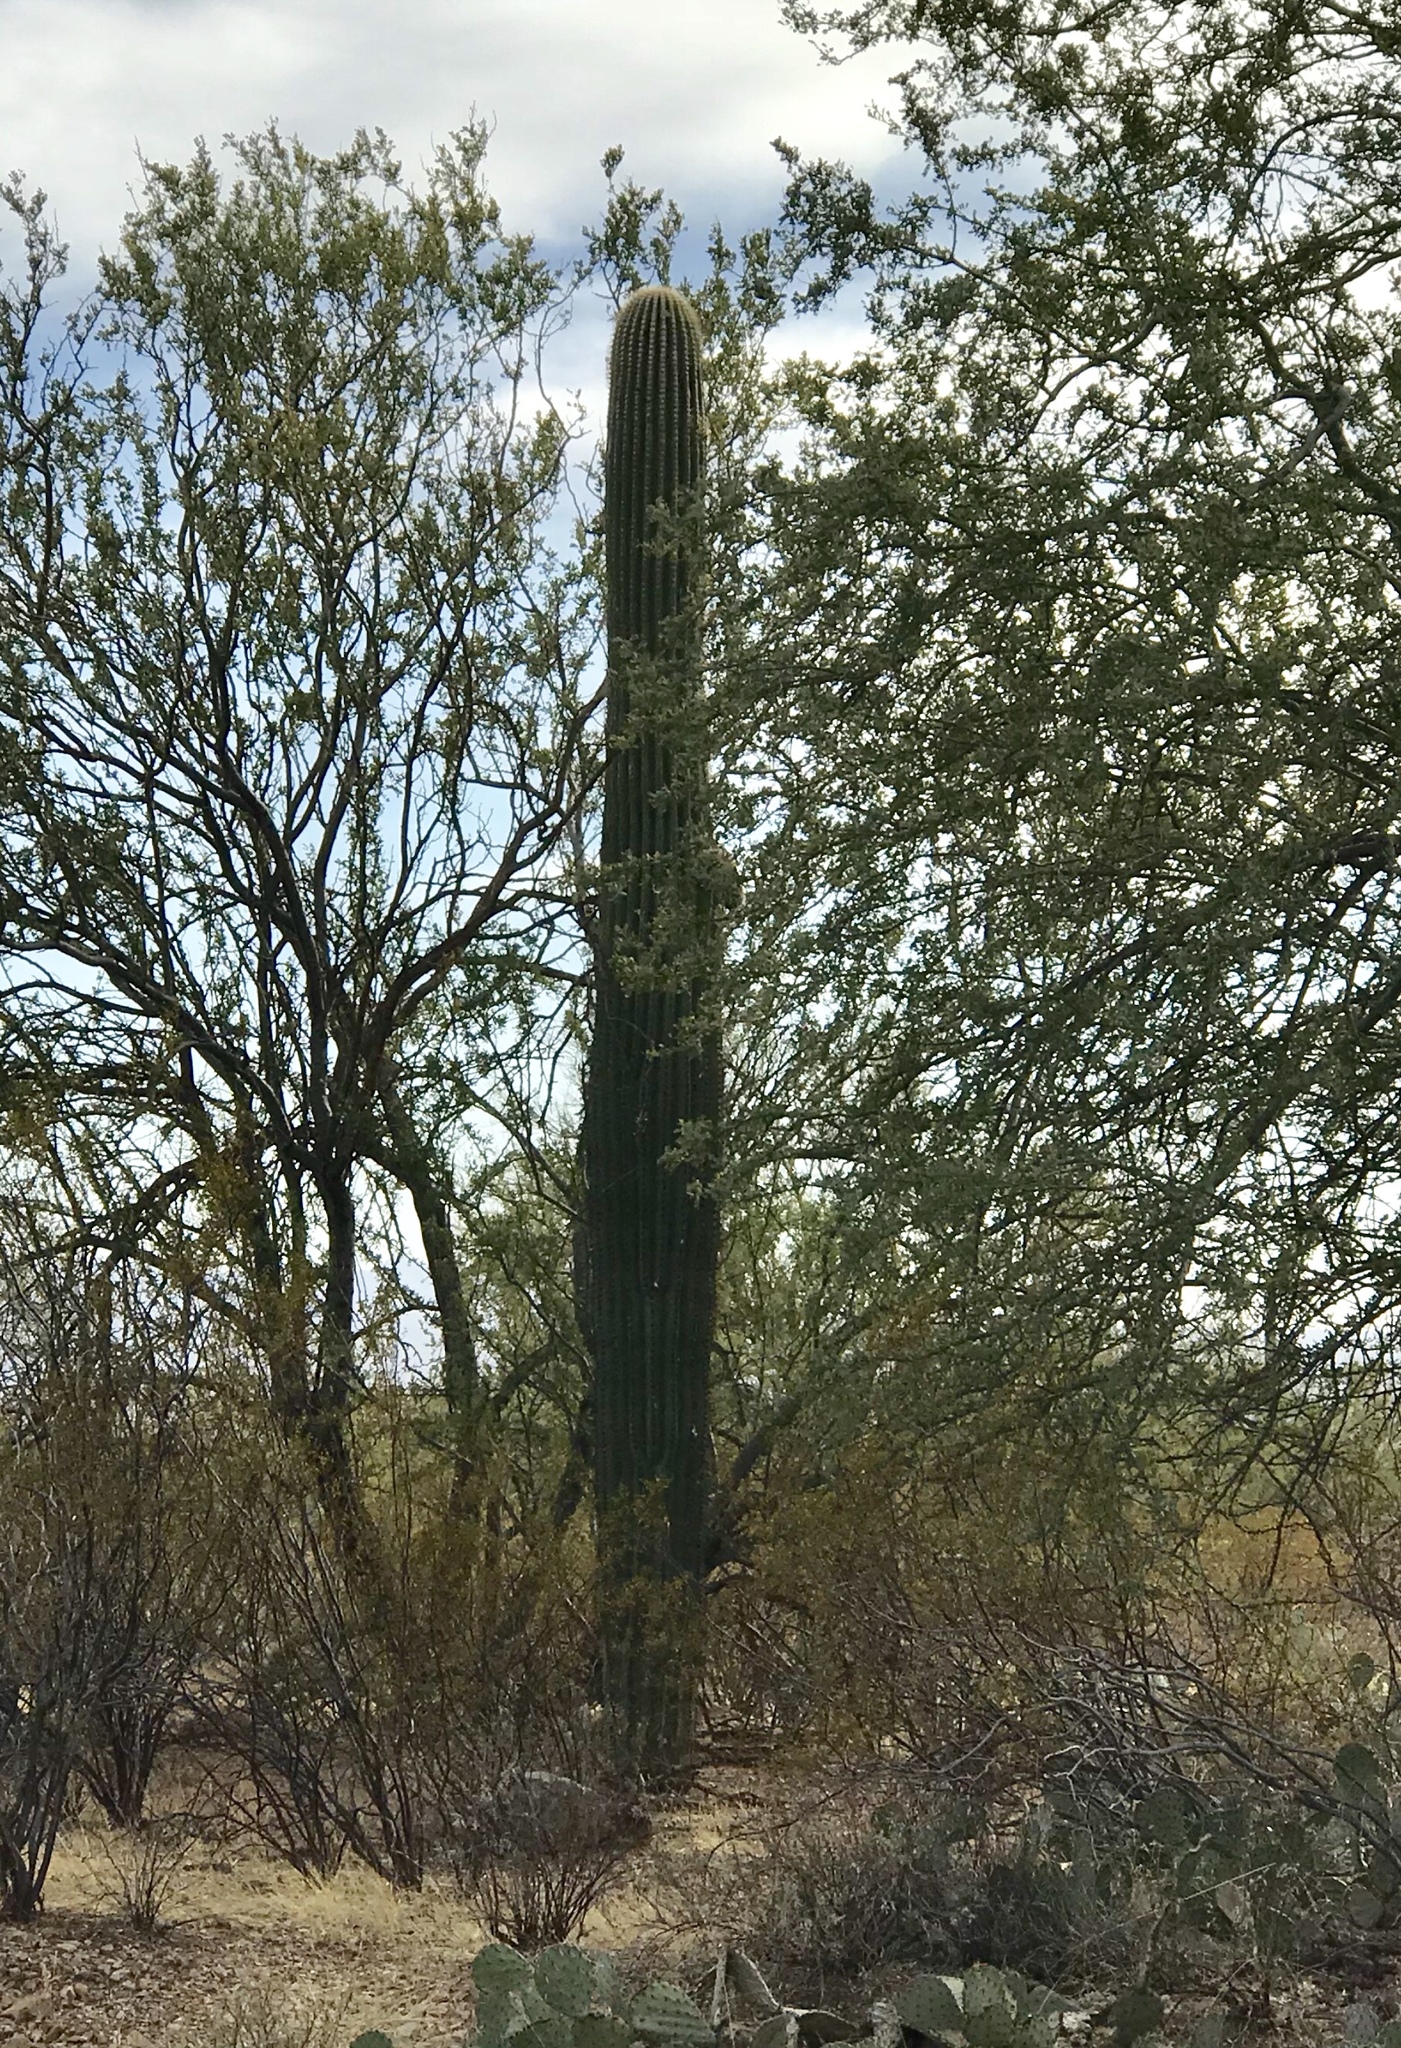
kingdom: Plantae
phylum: Tracheophyta
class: Magnoliopsida
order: Caryophyllales
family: Cactaceae
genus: Carnegiea
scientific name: Carnegiea gigantea
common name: Saguaro
